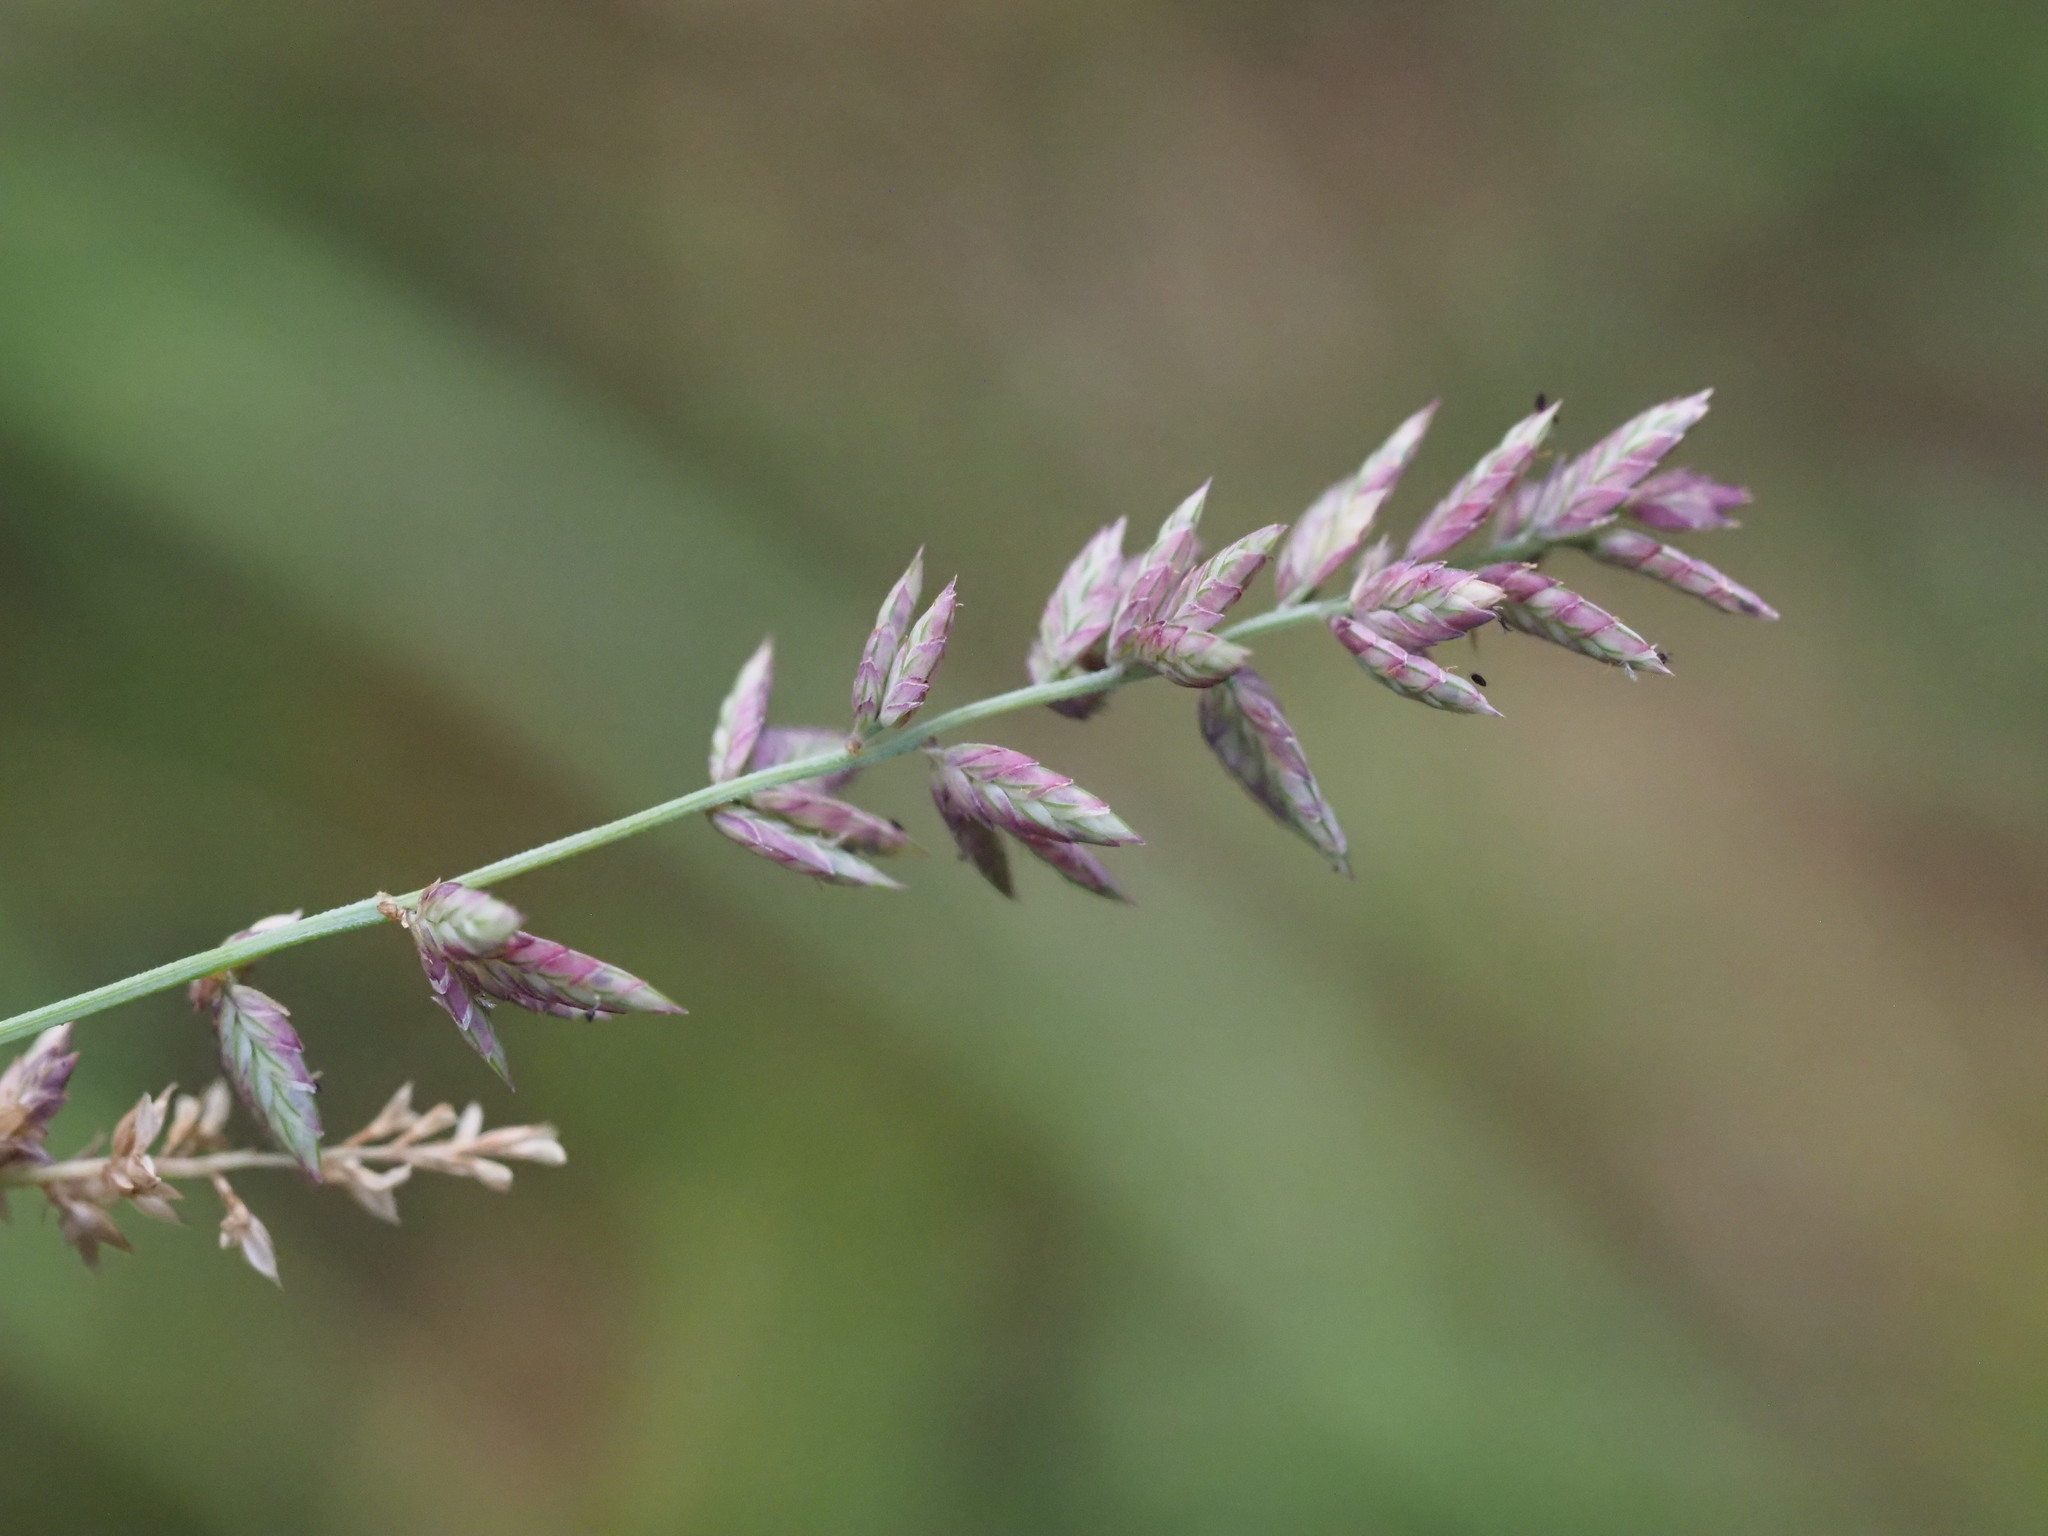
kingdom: Plantae
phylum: Tracheophyta
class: Liliopsida
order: Poales
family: Poaceae
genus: Eragrostis
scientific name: Eragrostis elongata
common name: Long lovegrass
